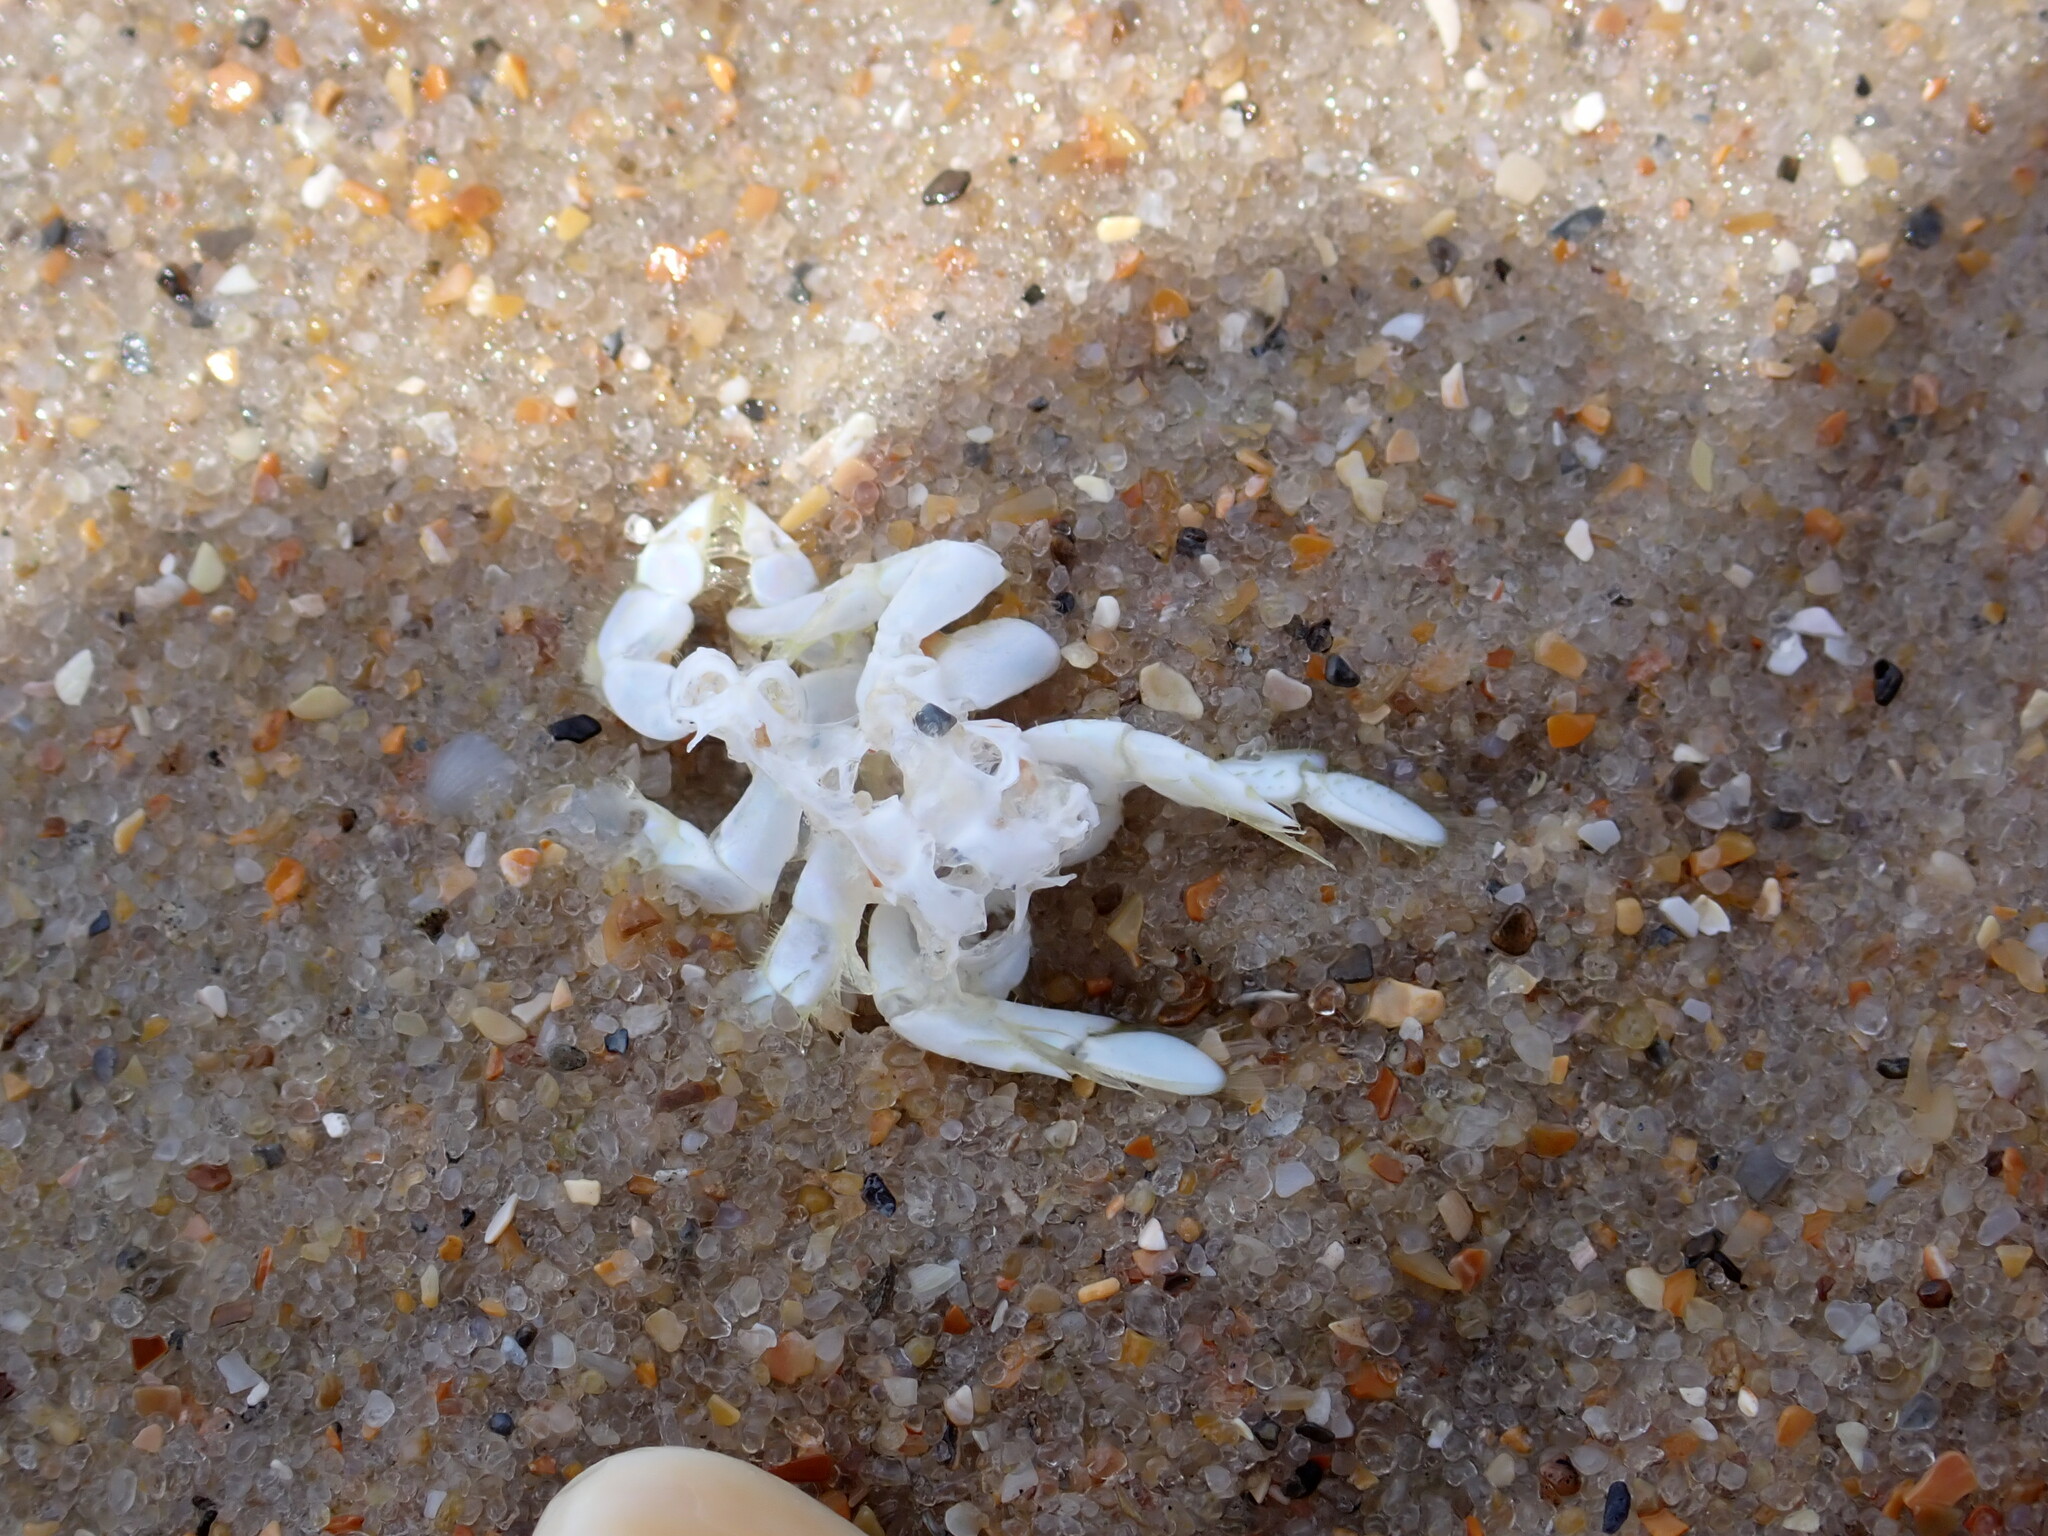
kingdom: Animalia
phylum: Arthropoda
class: Malacostraca
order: Decapoda
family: Hippidae
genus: Emerita
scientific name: Emerita talpoida
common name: Atlantic sand crab
